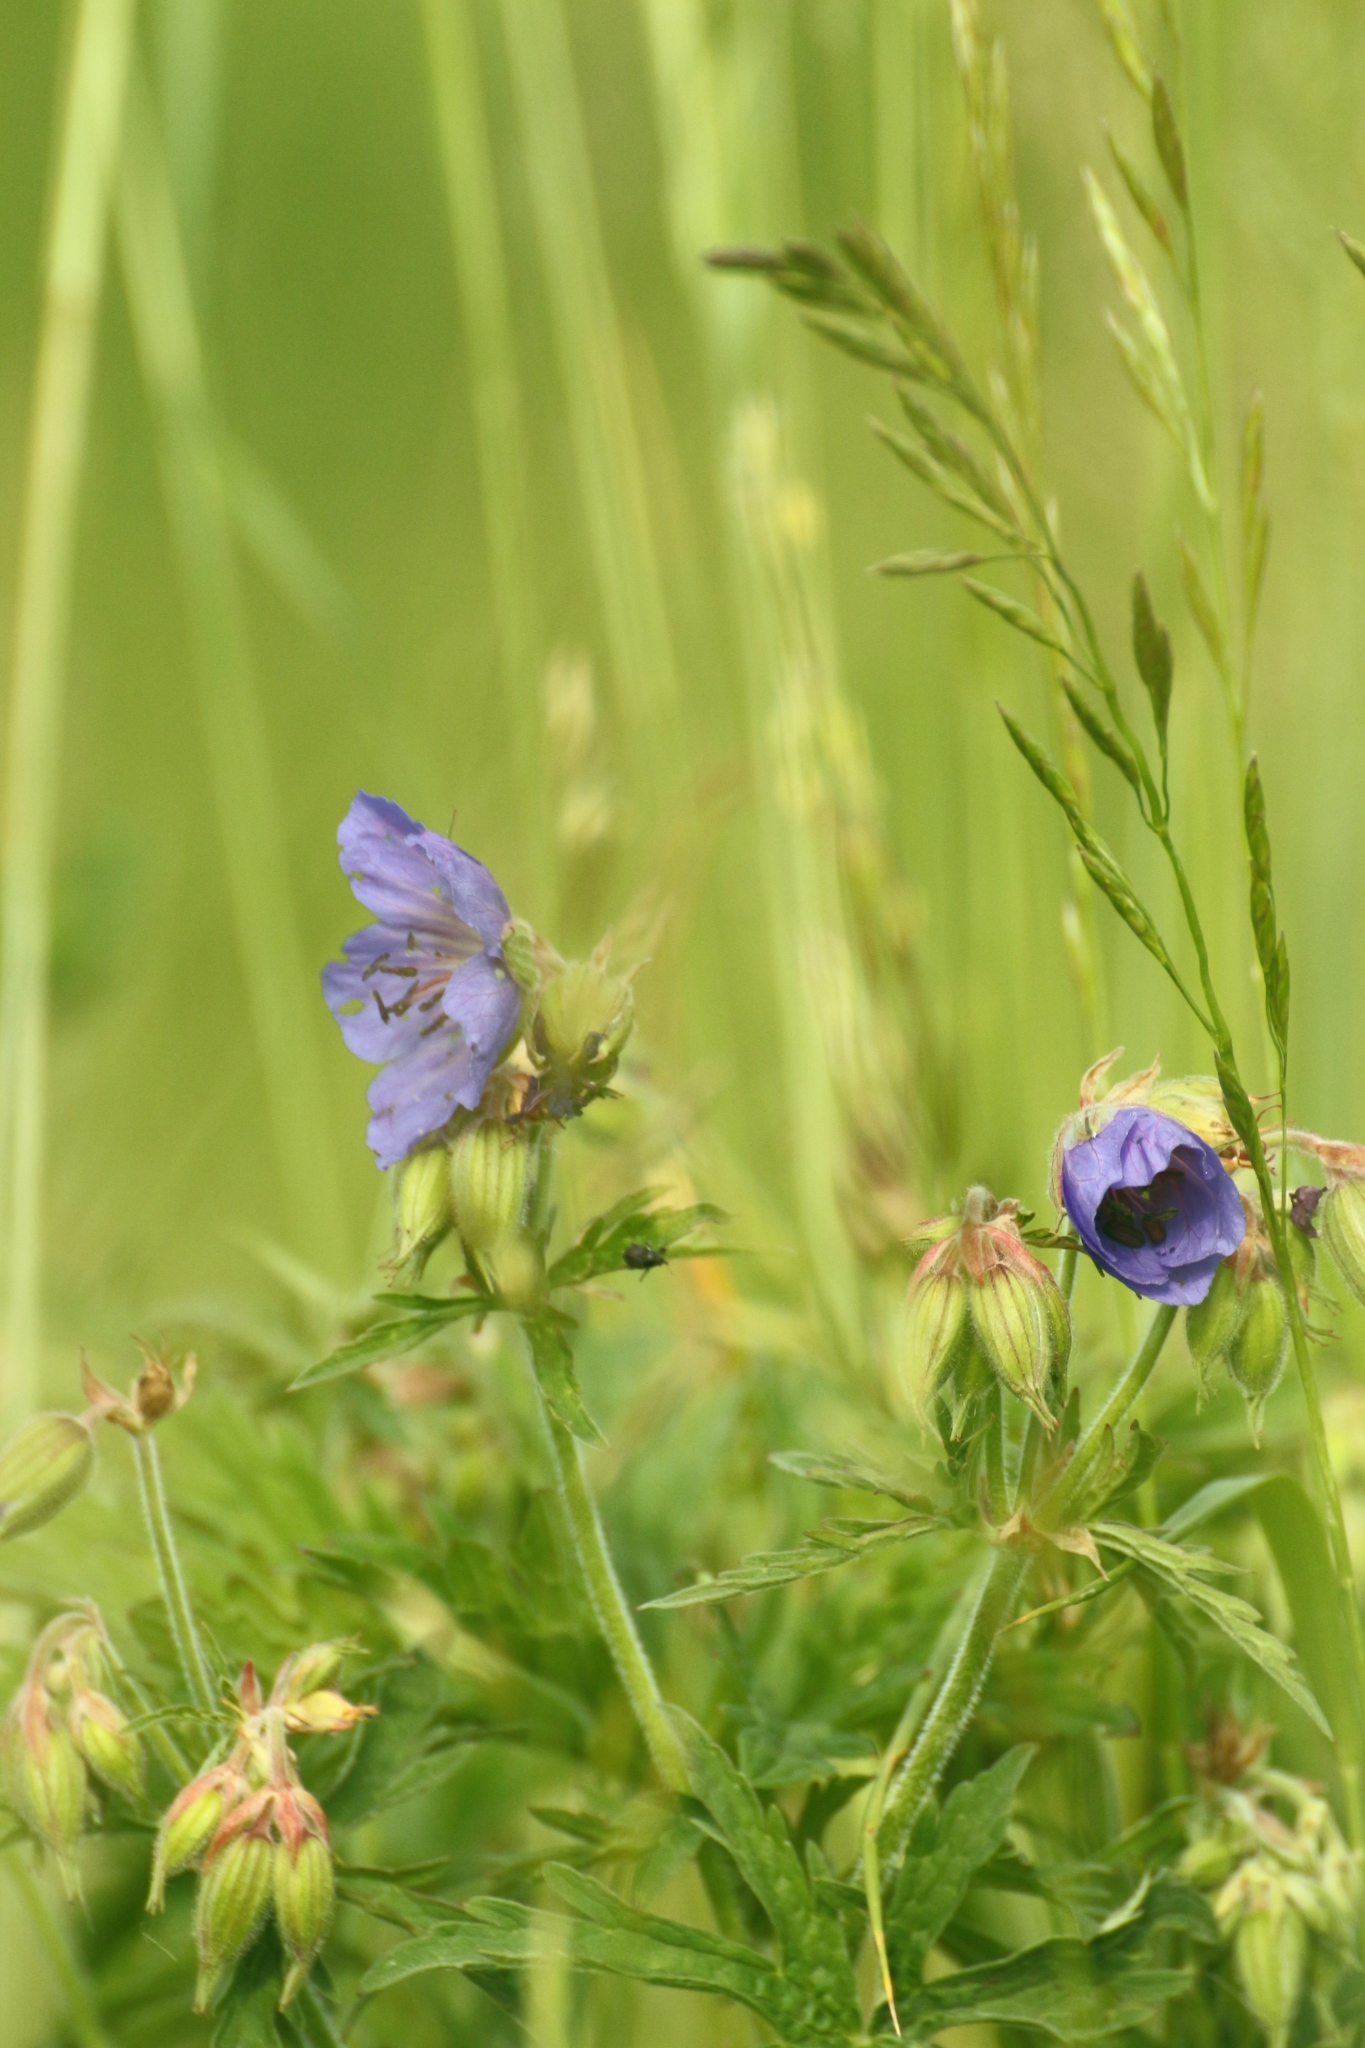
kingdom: Plantae
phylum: Tracheophyta
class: Magnoliopsida
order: Geraniales
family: Geraniaceae
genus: Geranium
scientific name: Geranium pratense
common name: Meadow crane's-bill
